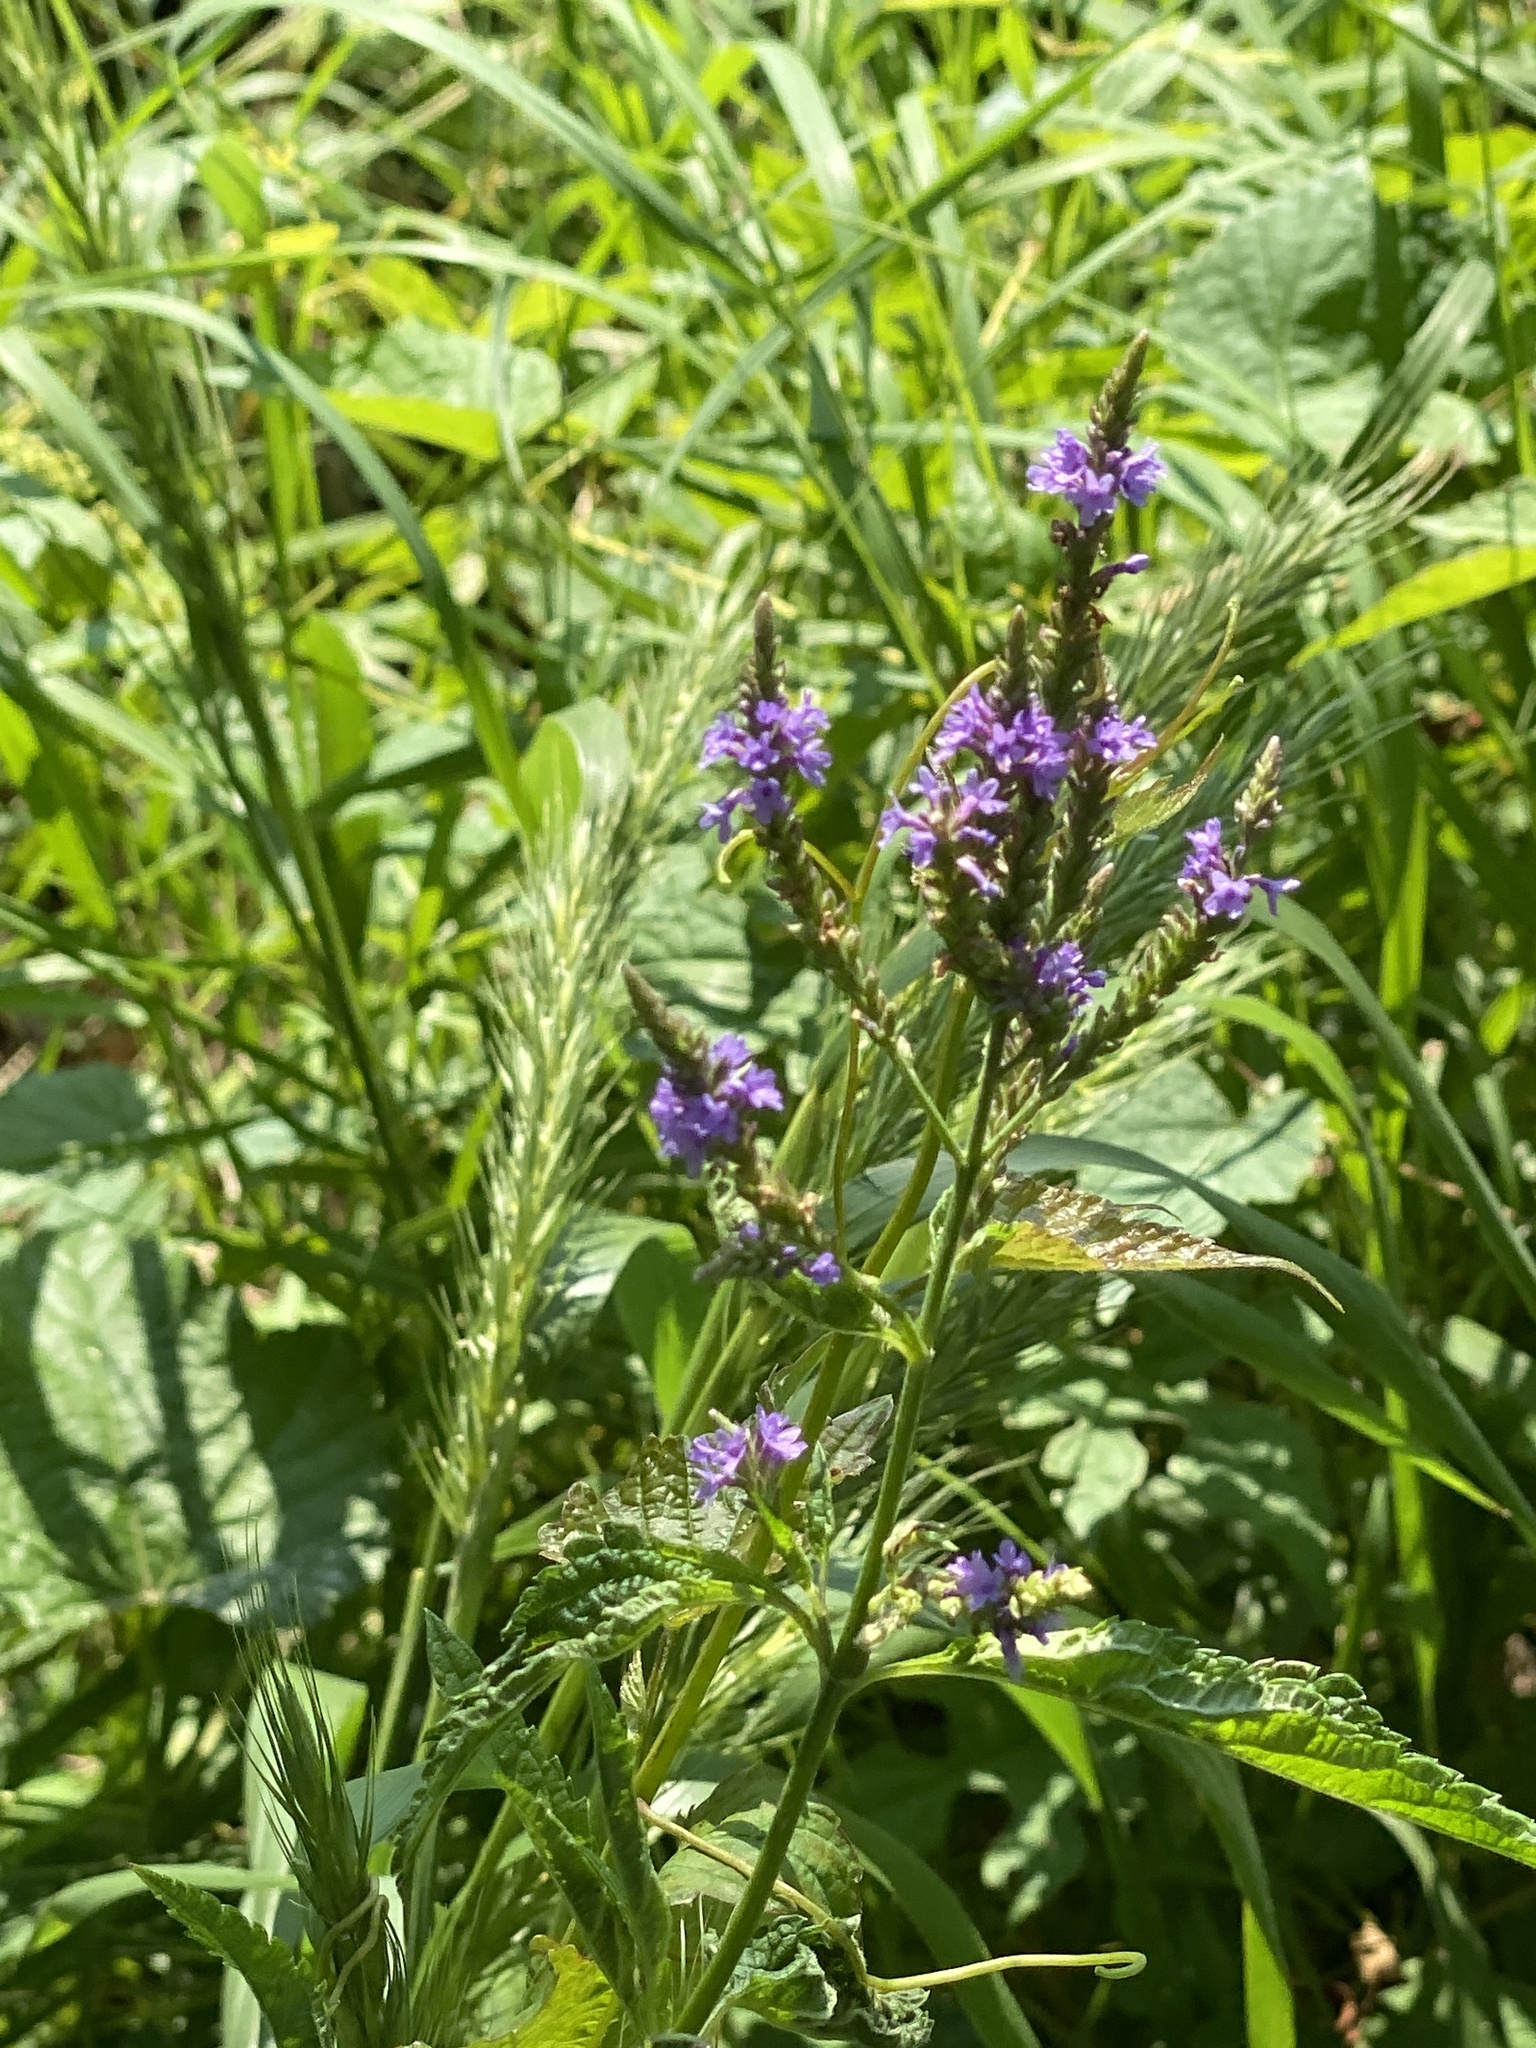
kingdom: Plantae
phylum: Tracheophyta
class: Magnoliopsida
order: Lamiales
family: Verbenaceae
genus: Verbena
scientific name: Verbena hastata
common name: American blue vervain
